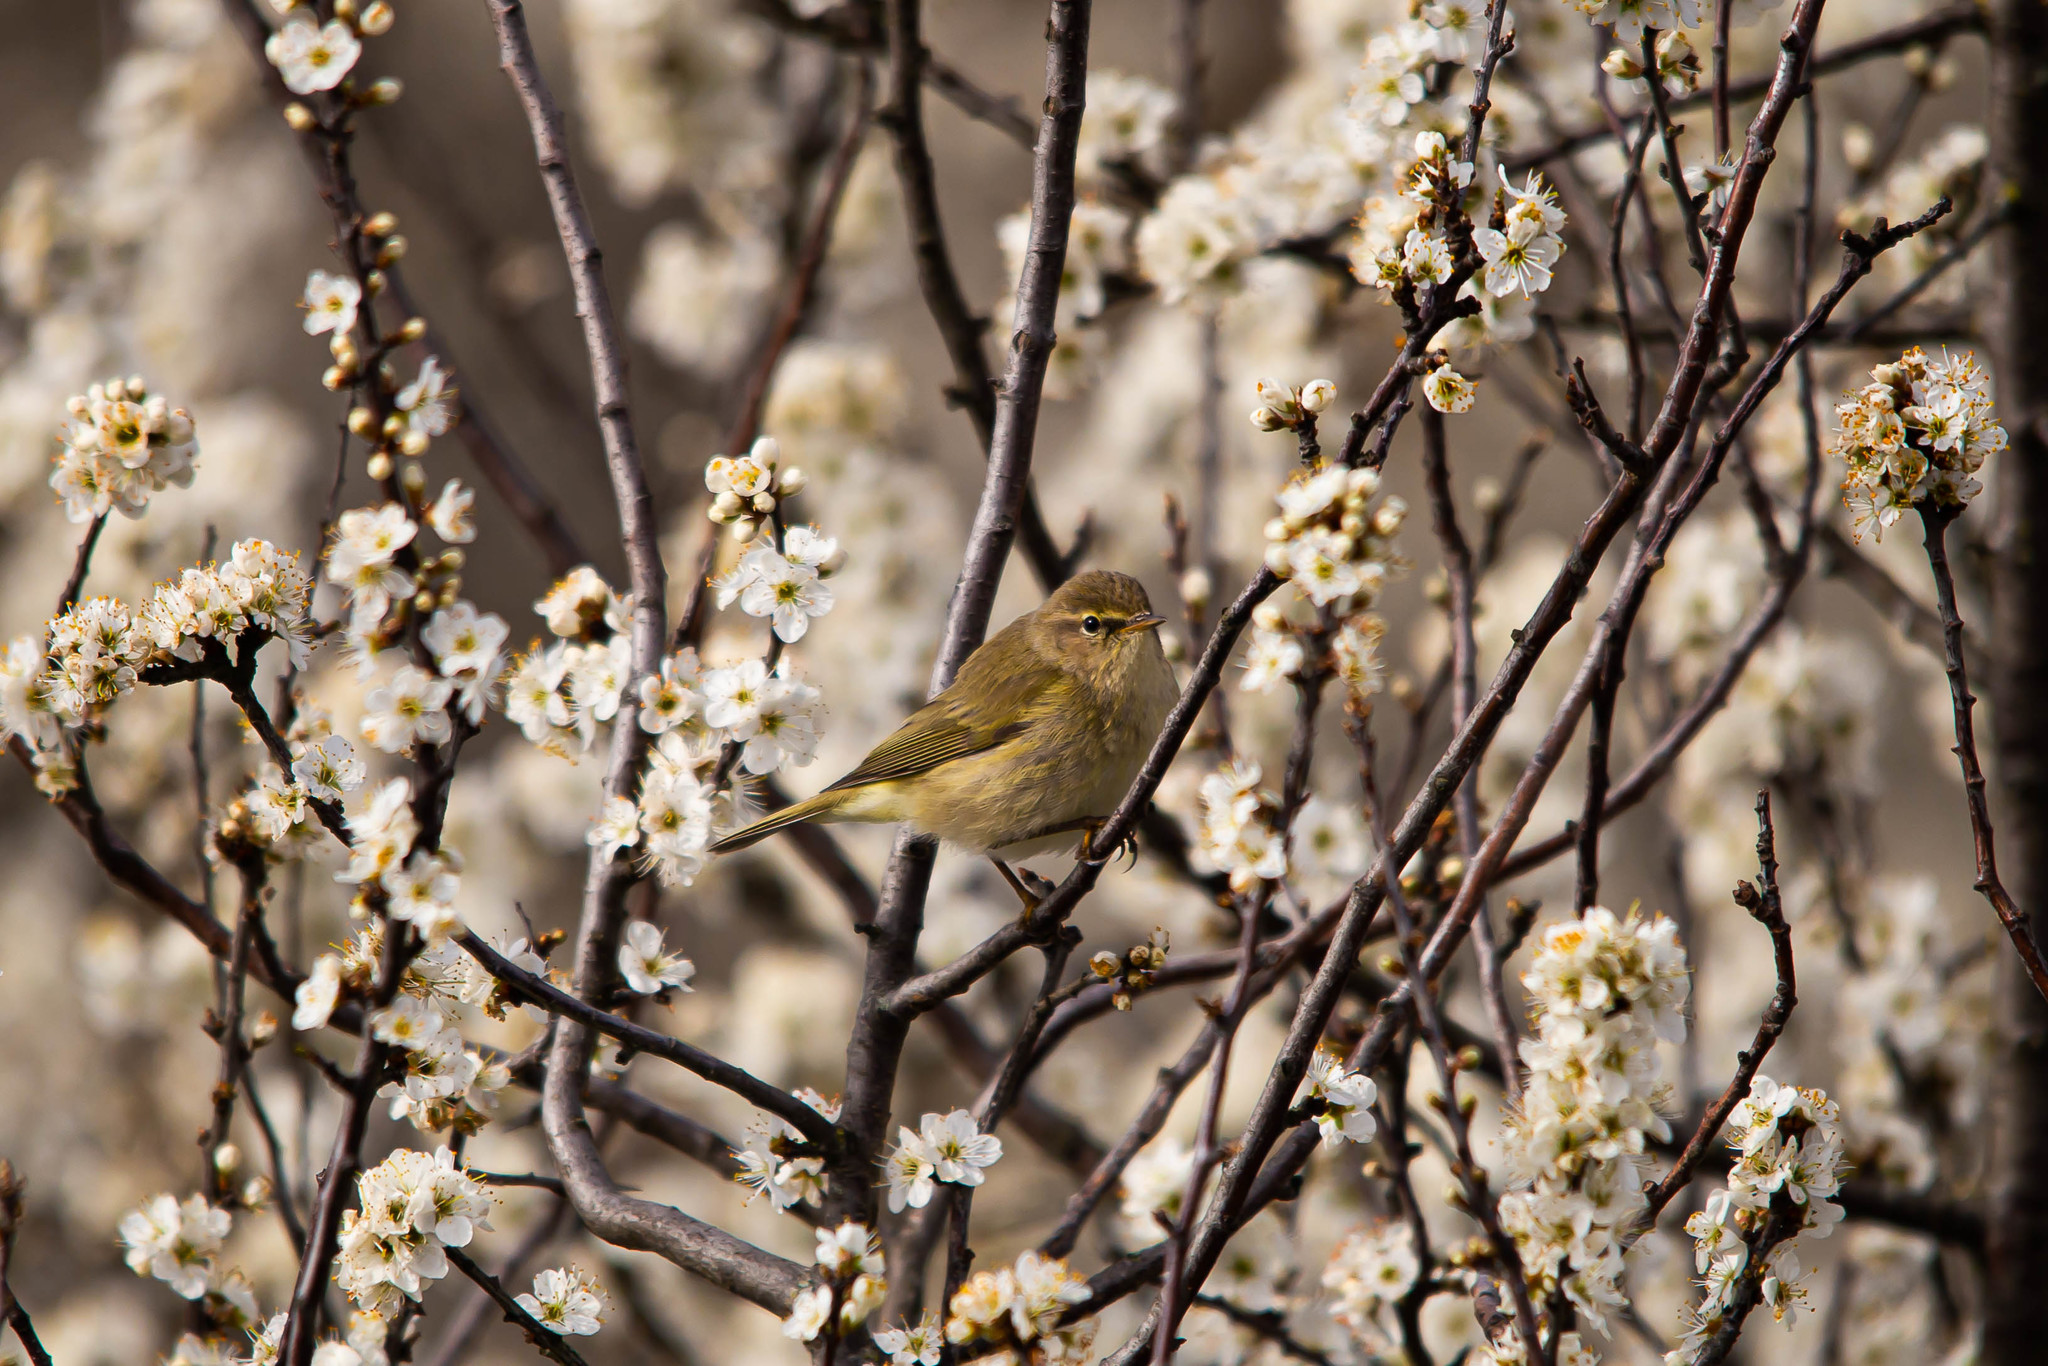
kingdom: Animalia
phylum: Chordata
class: Aves
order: Passeriformes
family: Phylloscopidae
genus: Phylloscopus
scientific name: Phylloscopus collybita
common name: Common chiffchaff
